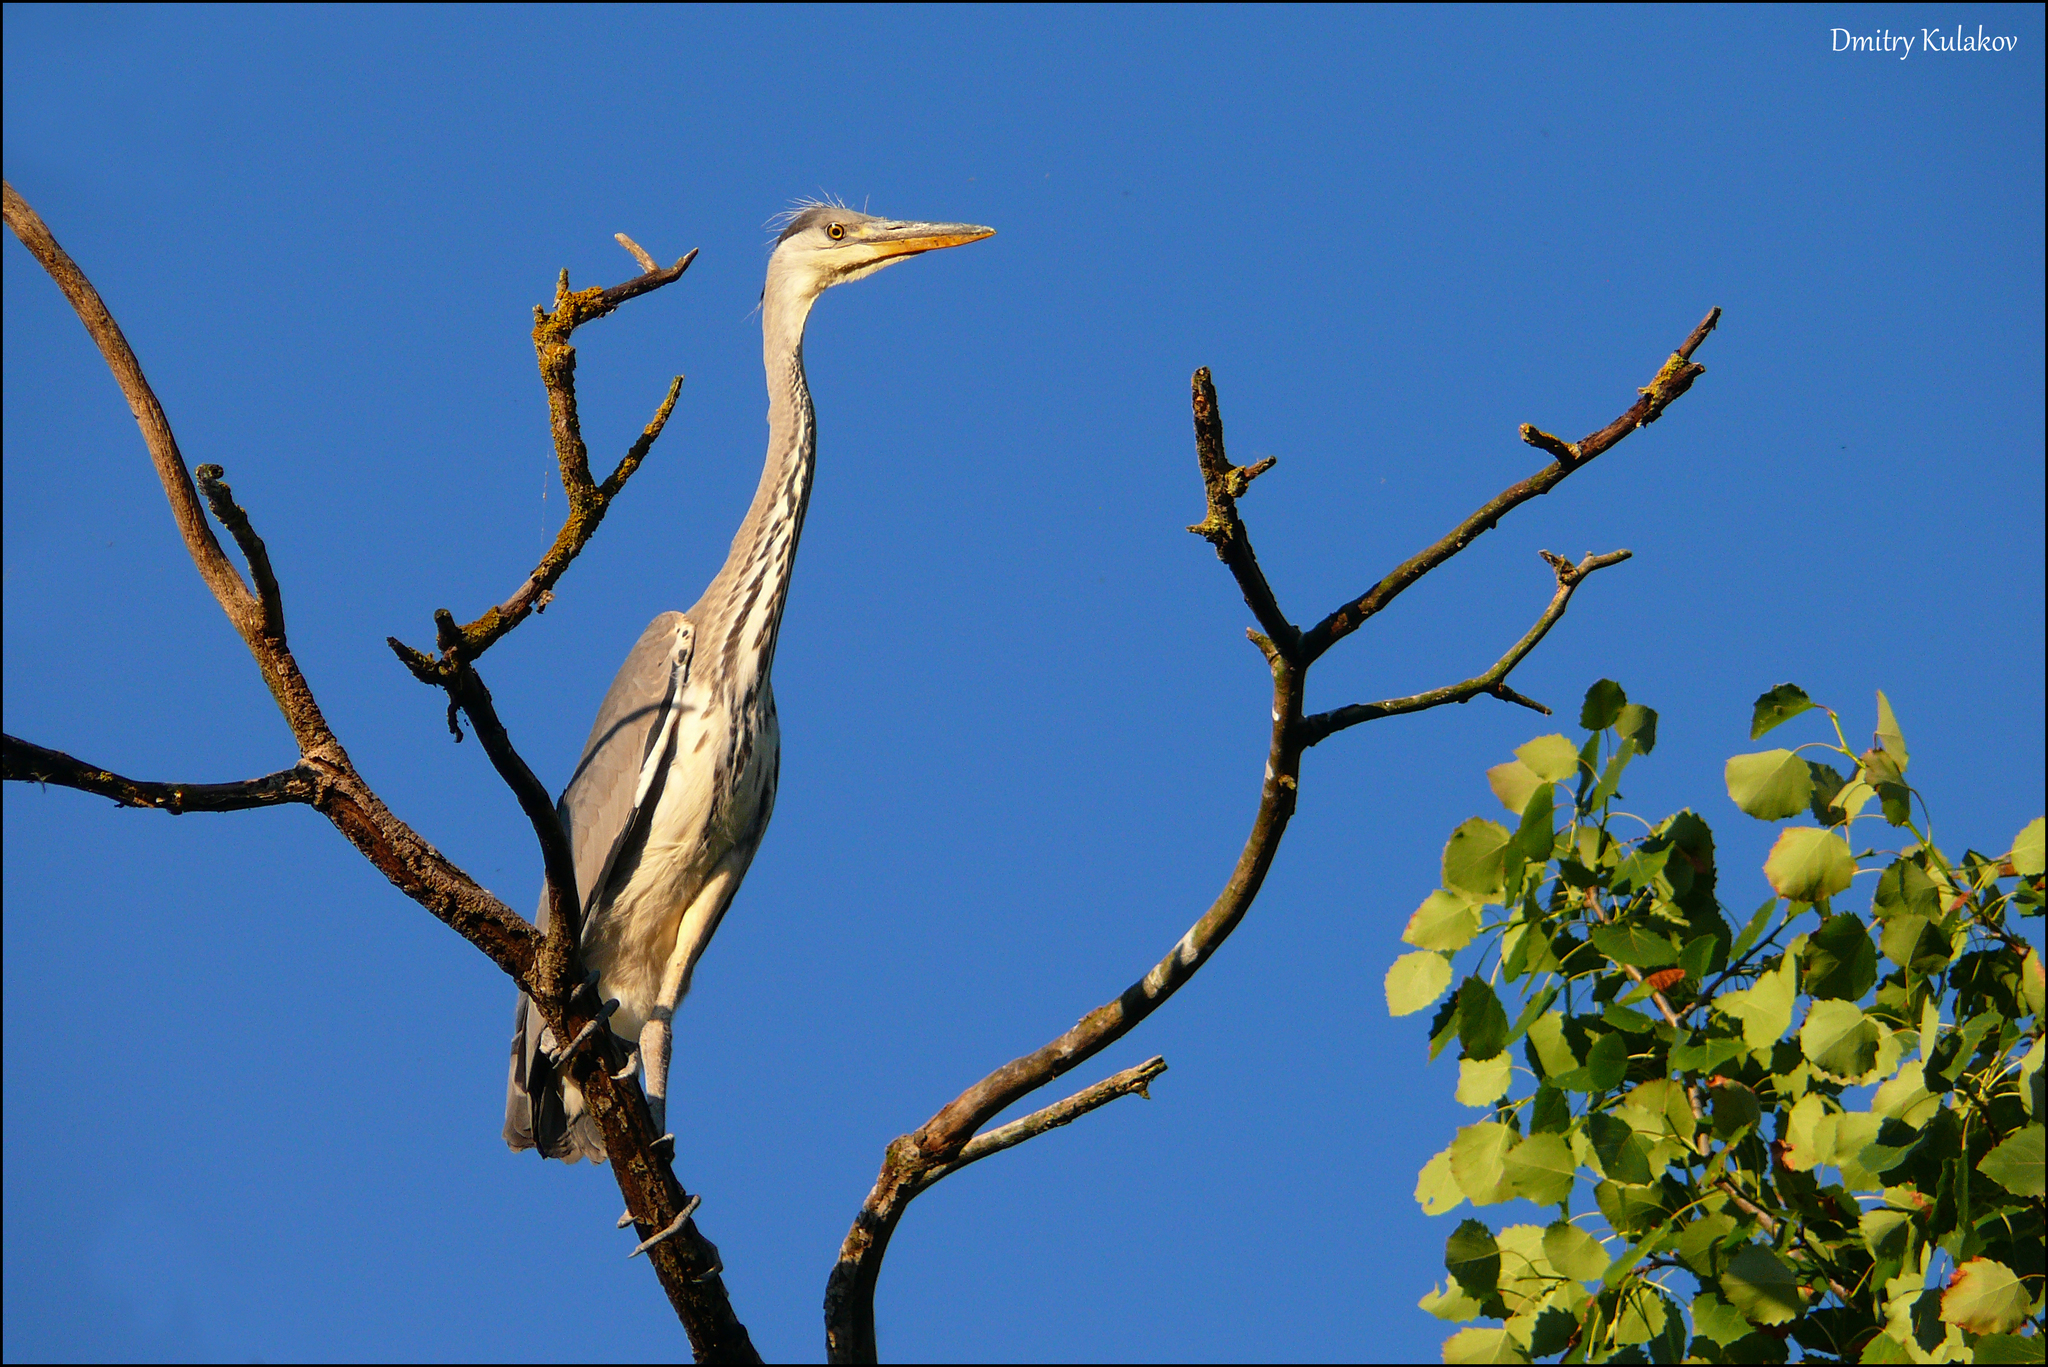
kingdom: Animalia
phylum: Chordata
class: Aves
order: Pelecaniformes
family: Ardeidae
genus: Ardea
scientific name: Ardea cinerea
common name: Grey heron
